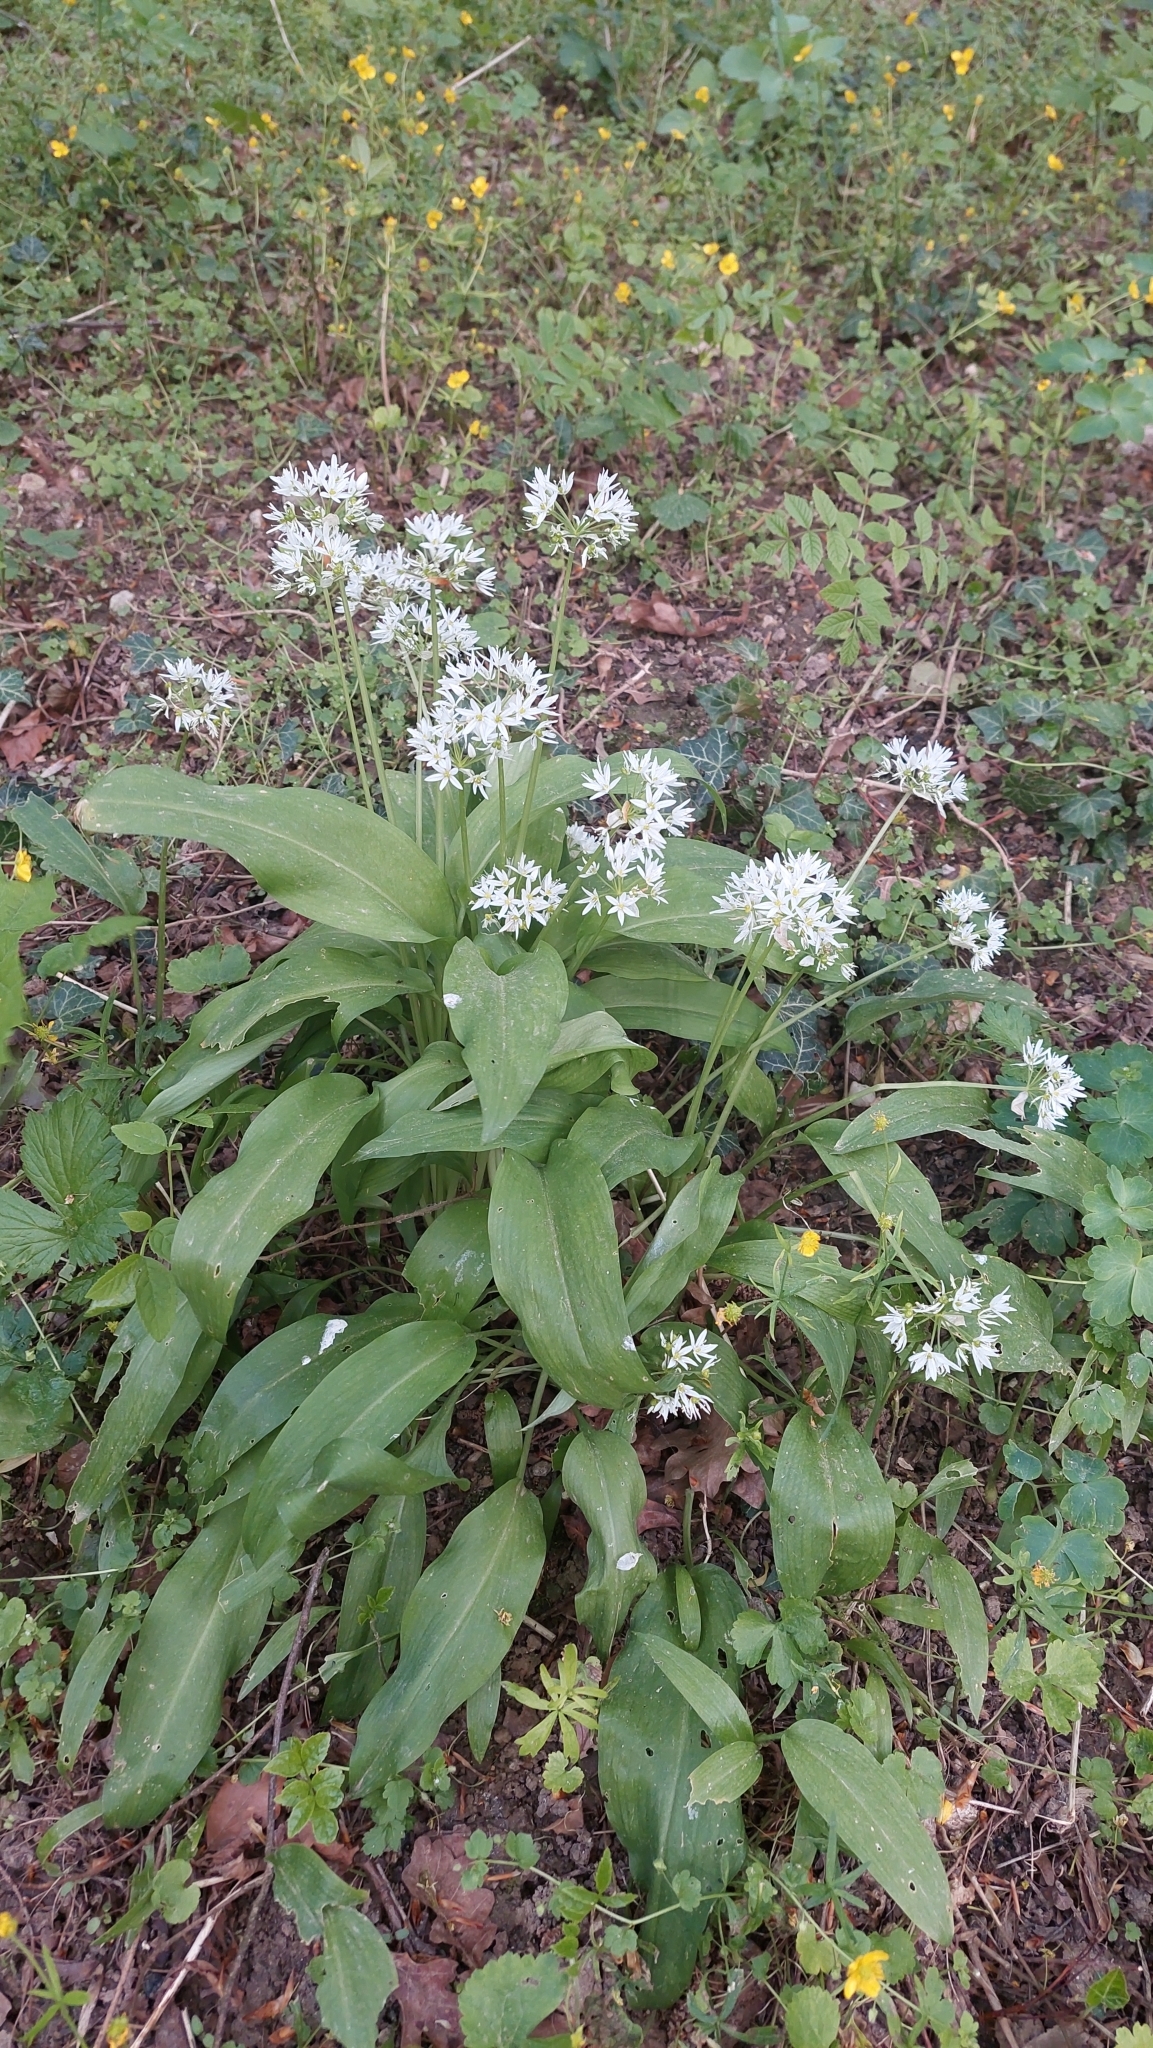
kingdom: Plantae
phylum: Tracheophyta
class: Liliopsida
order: Asparagales
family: Amaryllidaceae
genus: Allium
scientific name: Allium ursinum
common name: Ramsons
